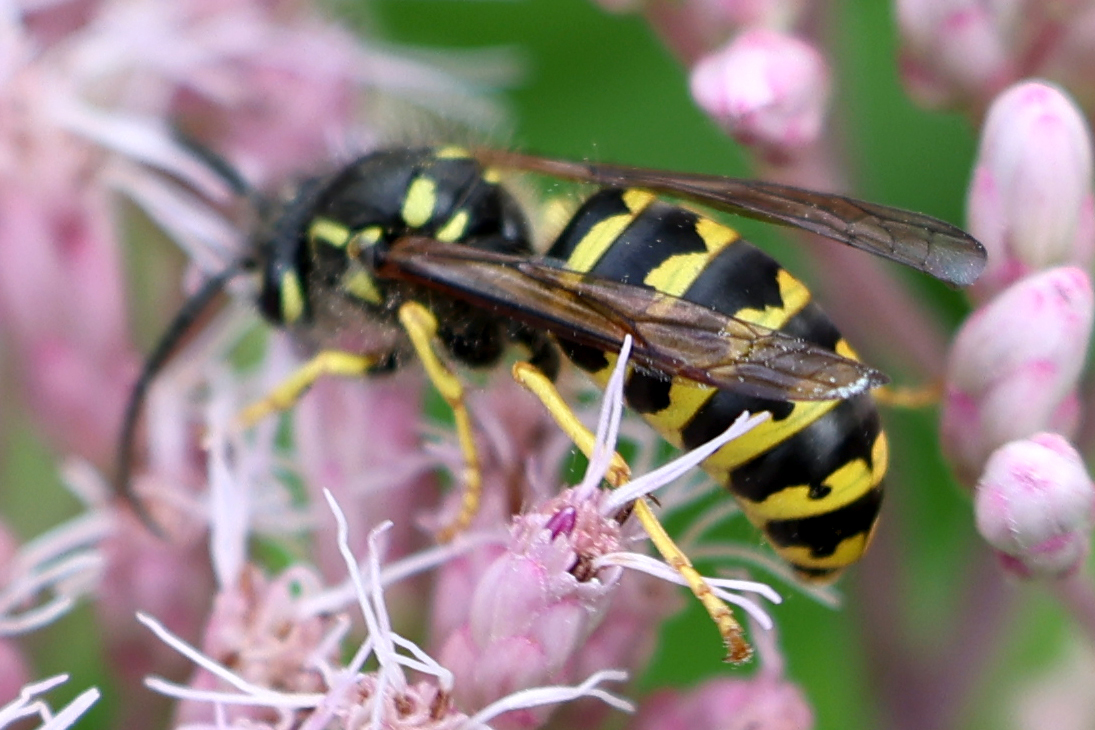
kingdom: Animalia
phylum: Arthropoda
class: Insecta
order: Hymenoptera
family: Vespidae
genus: Dolichovespula
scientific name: Dolichovespula arenaria
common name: Aerial yellowjacket
